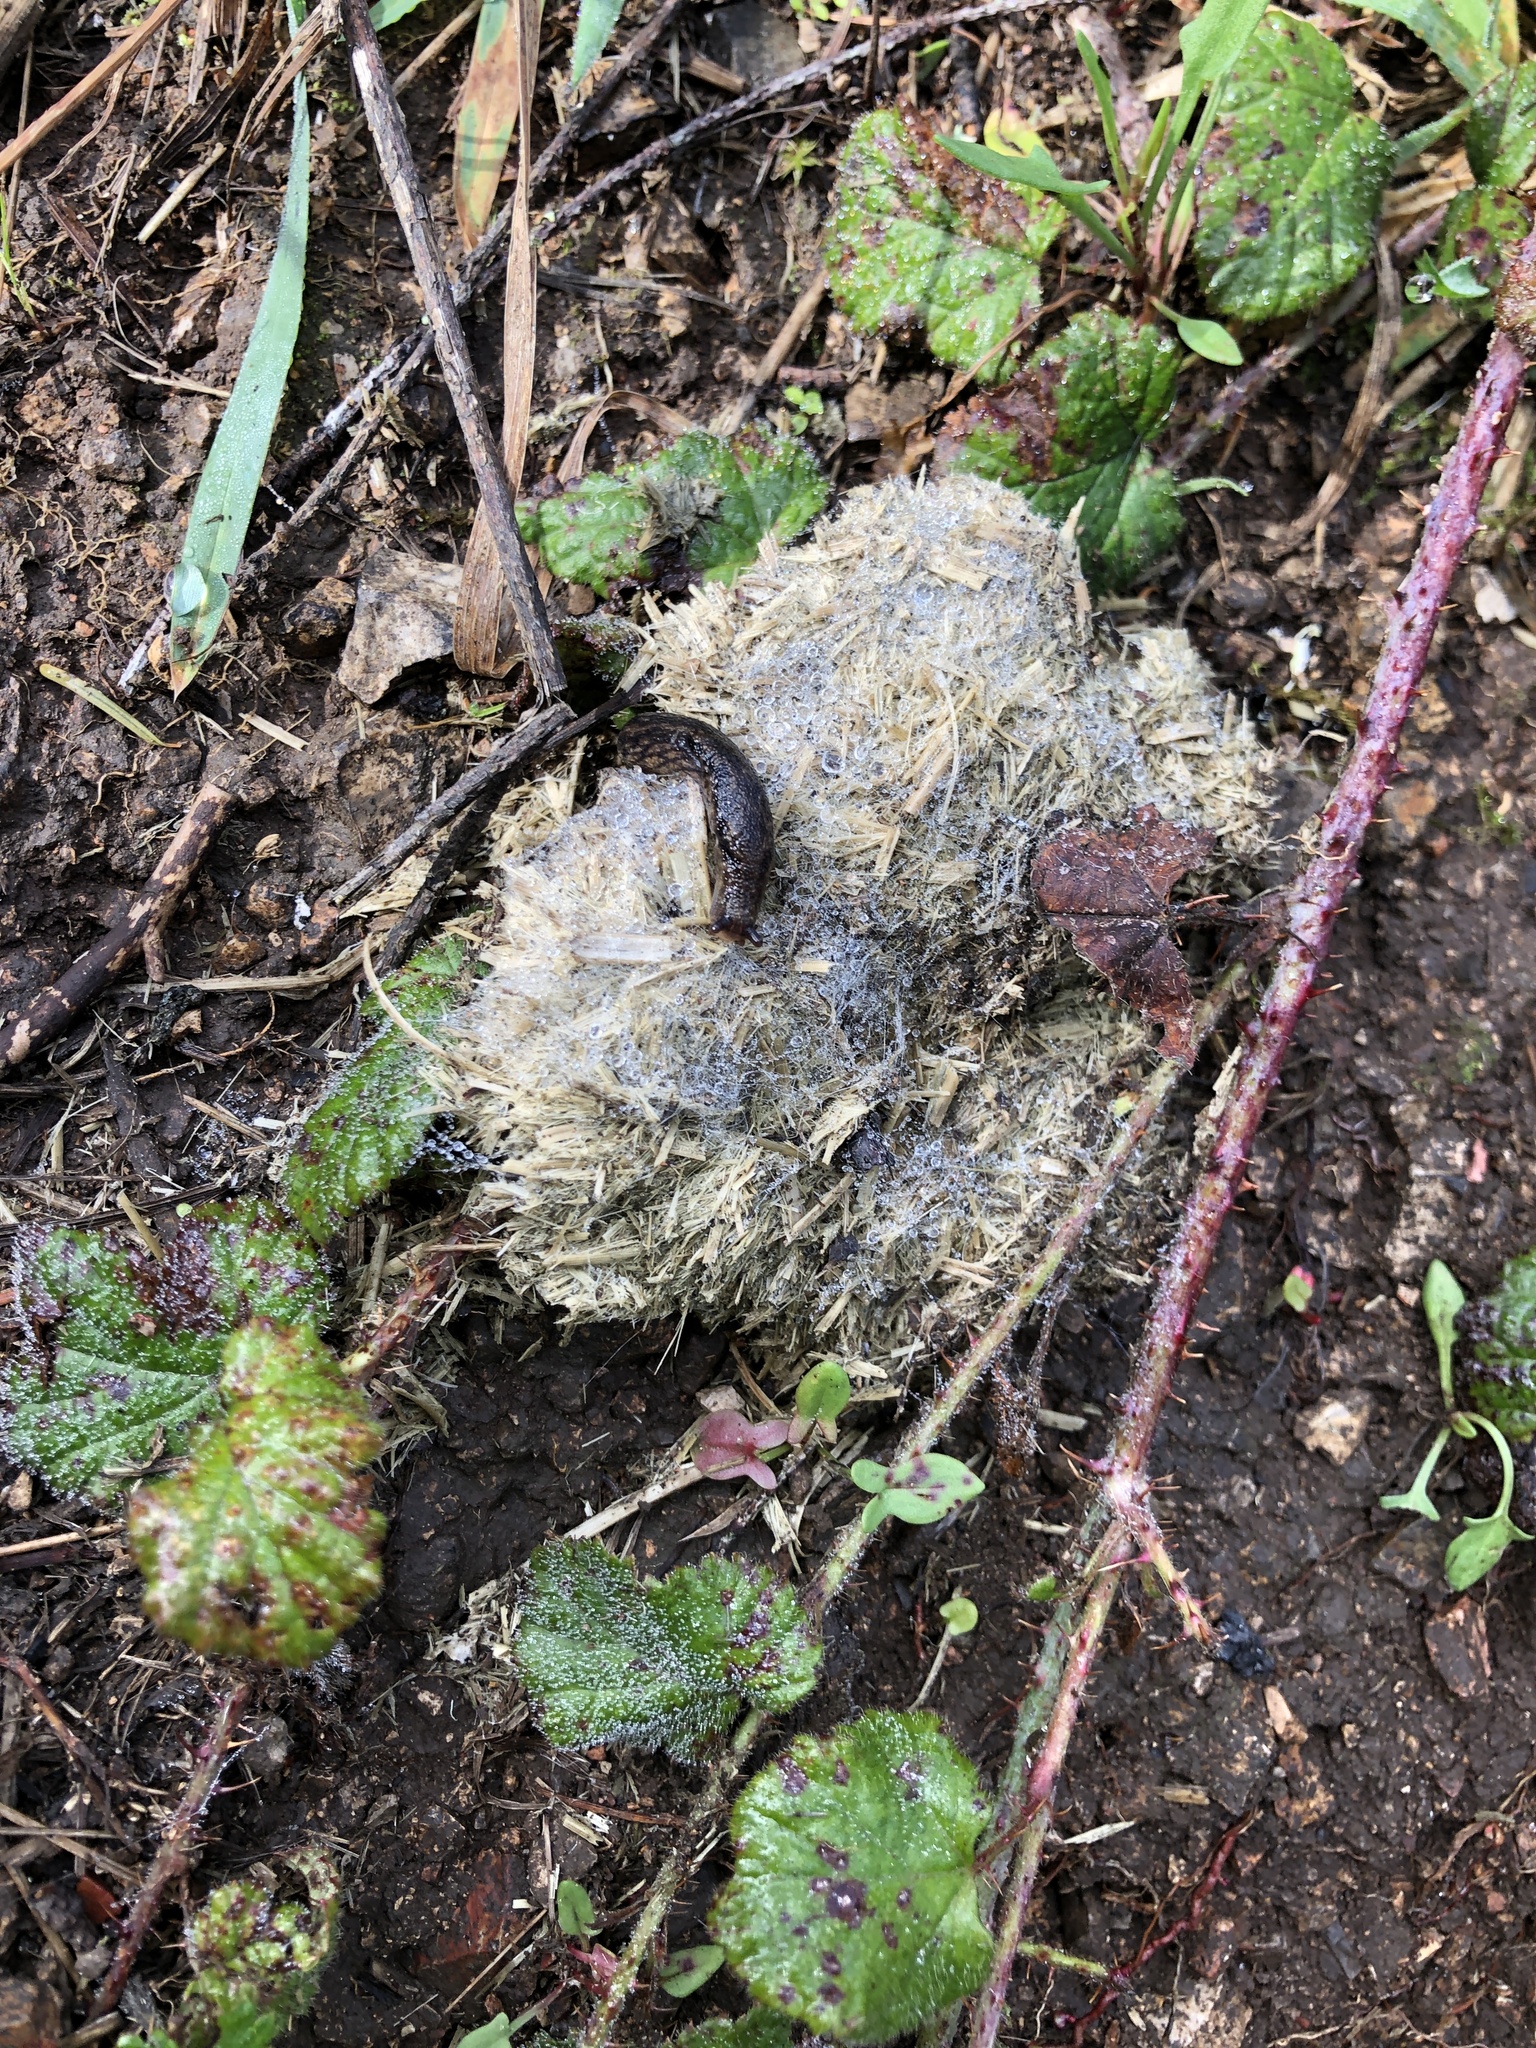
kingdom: Animalia
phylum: Mollusca
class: Gastropoda
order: Stylommatophora
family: Ariolimacidae
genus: Prophysaon
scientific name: Prophysaon andersonii
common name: Reticulate taildropper
